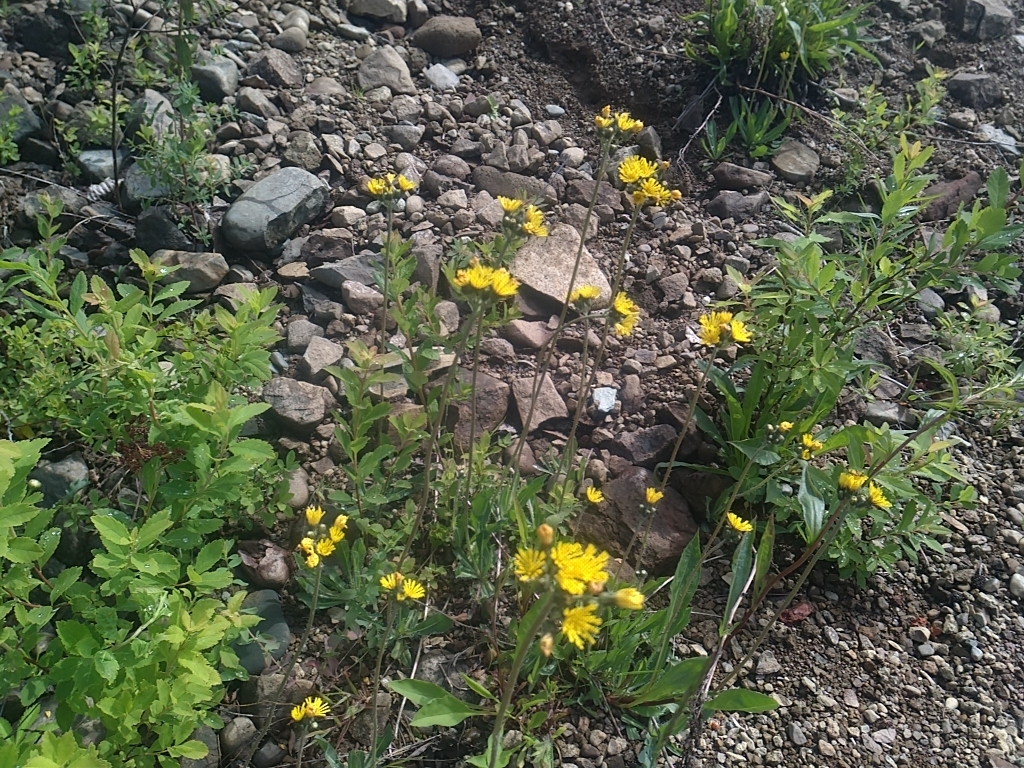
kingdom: Plantae
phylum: Tracheophyta
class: Magnoliopsida
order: Asterales
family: Asteraceae
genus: Pilosella
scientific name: Pilosella caespitosa
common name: Yellow fox-and-cubs
